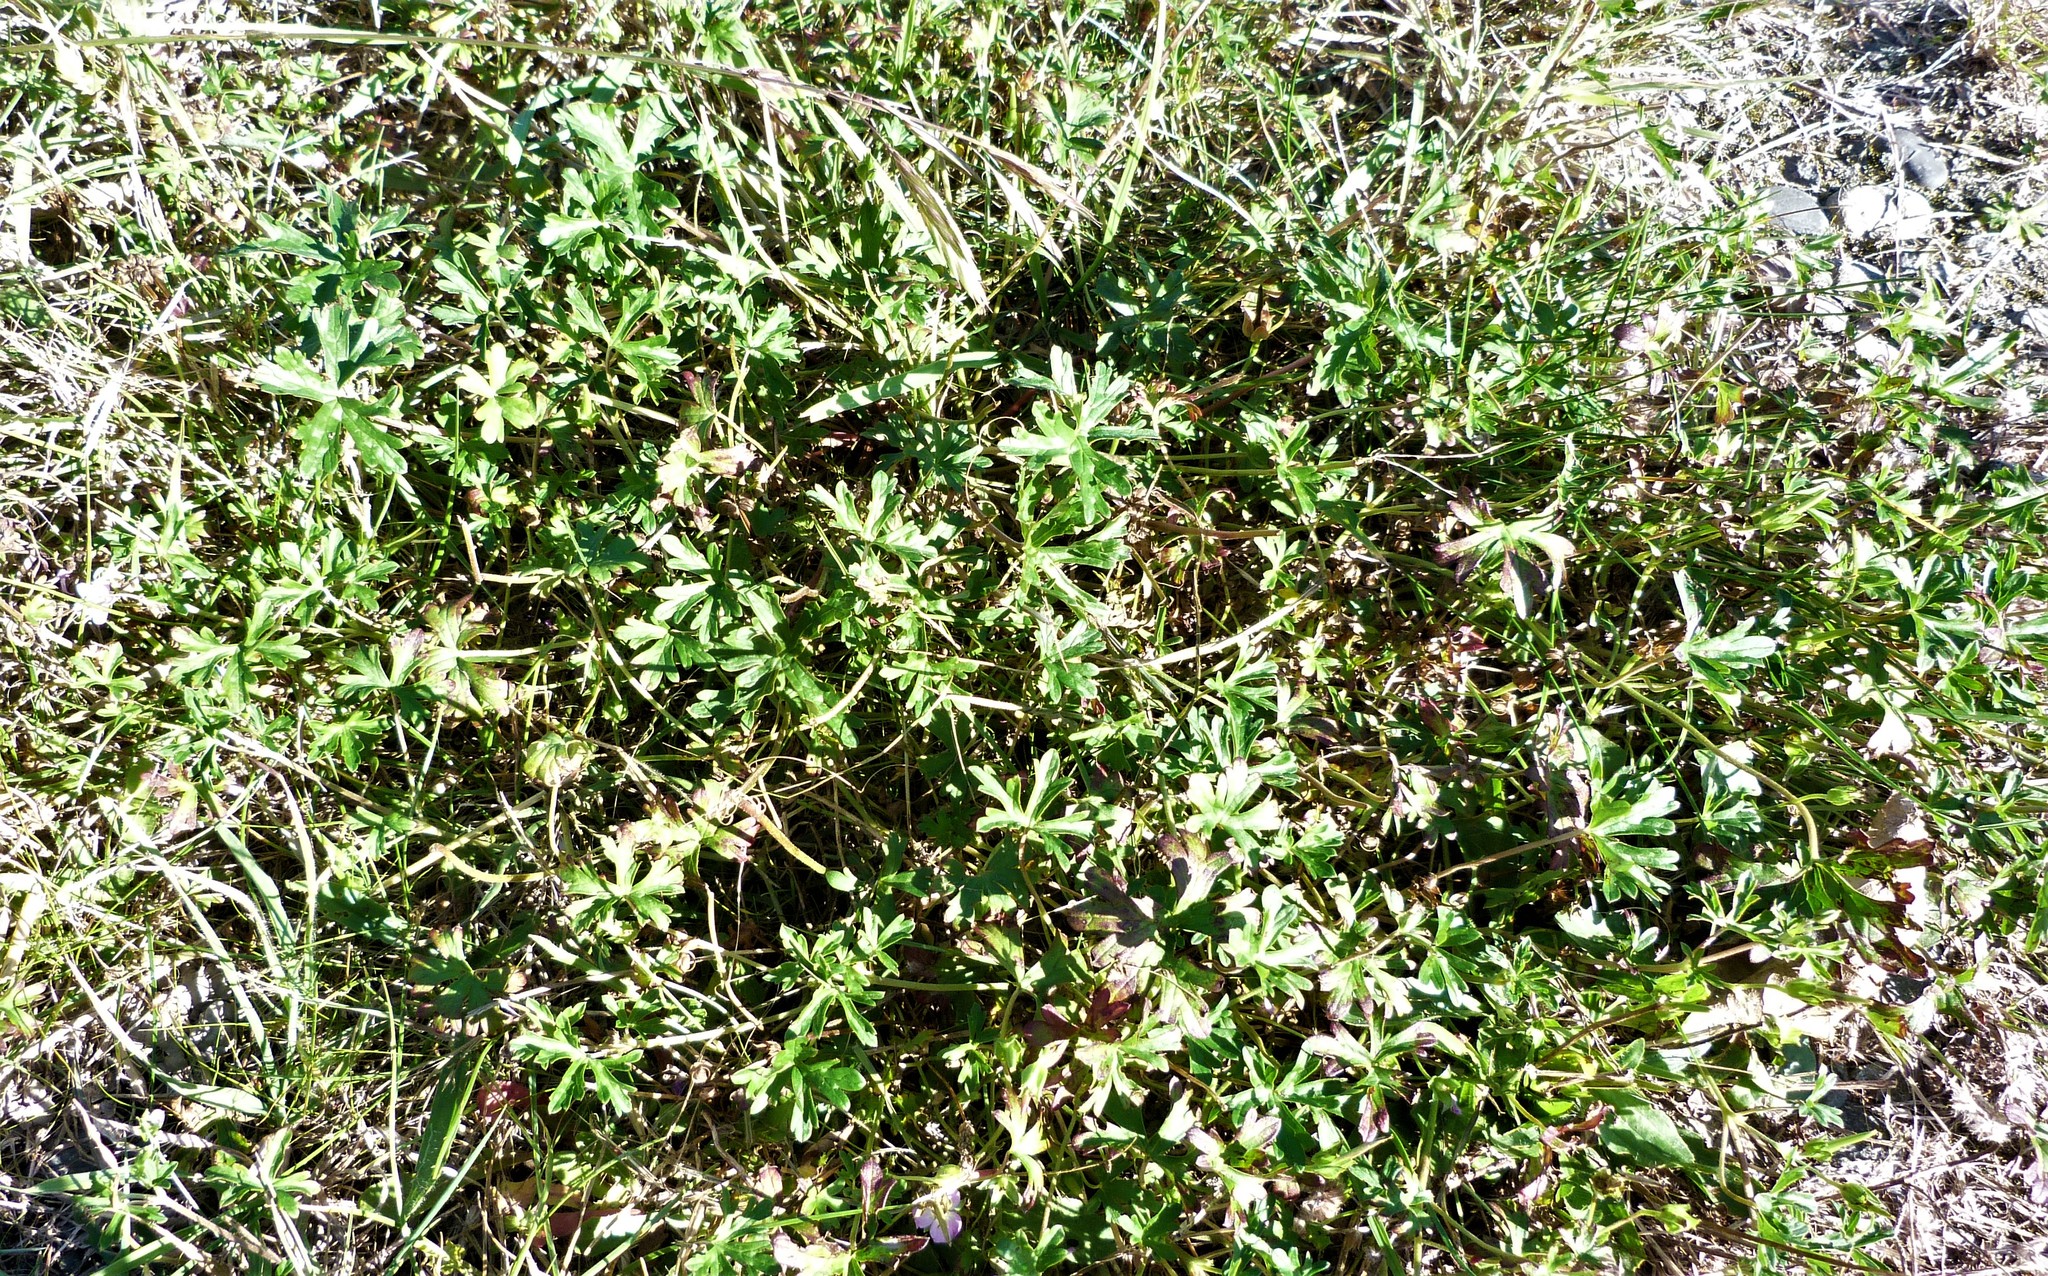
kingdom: Plantae
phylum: Tracheophyta
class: Magnoliopsida
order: Geraniales
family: Geraniaceae
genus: Geranium
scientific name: Geranium retrorsum
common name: New zealand geranium
